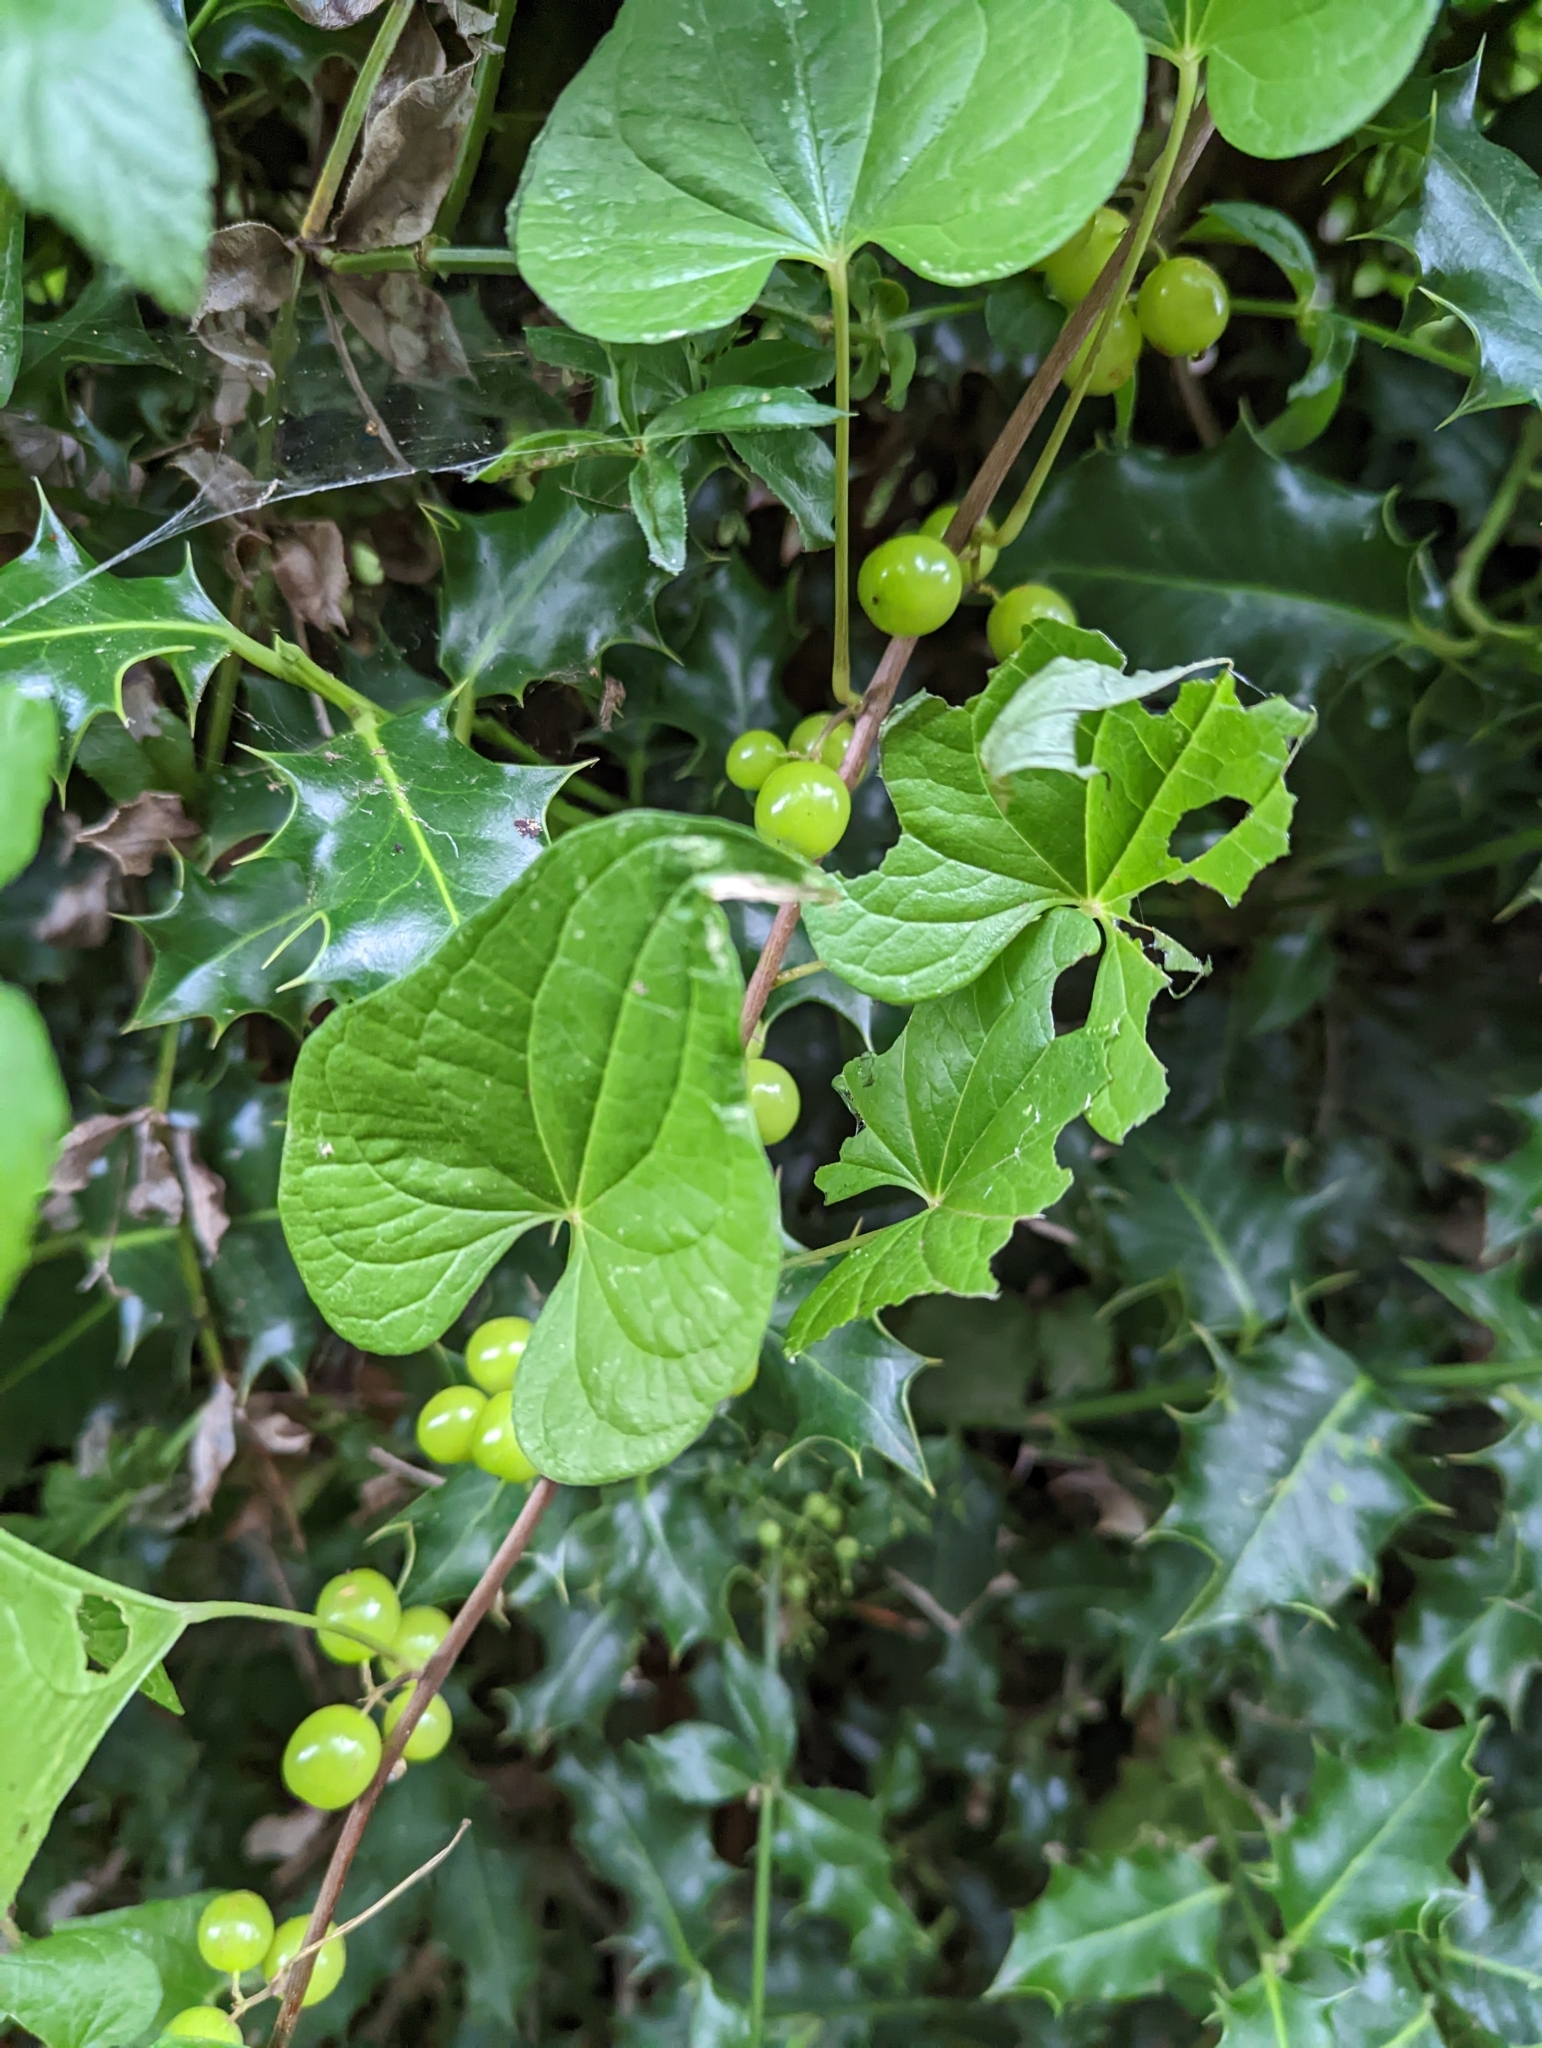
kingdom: Plantae
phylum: Tracheophyta
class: Liliopsida
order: Dioscoreales
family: Dioscoreaceae
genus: Dioscorea
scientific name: Dioscorea communis
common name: Black-bindweed
